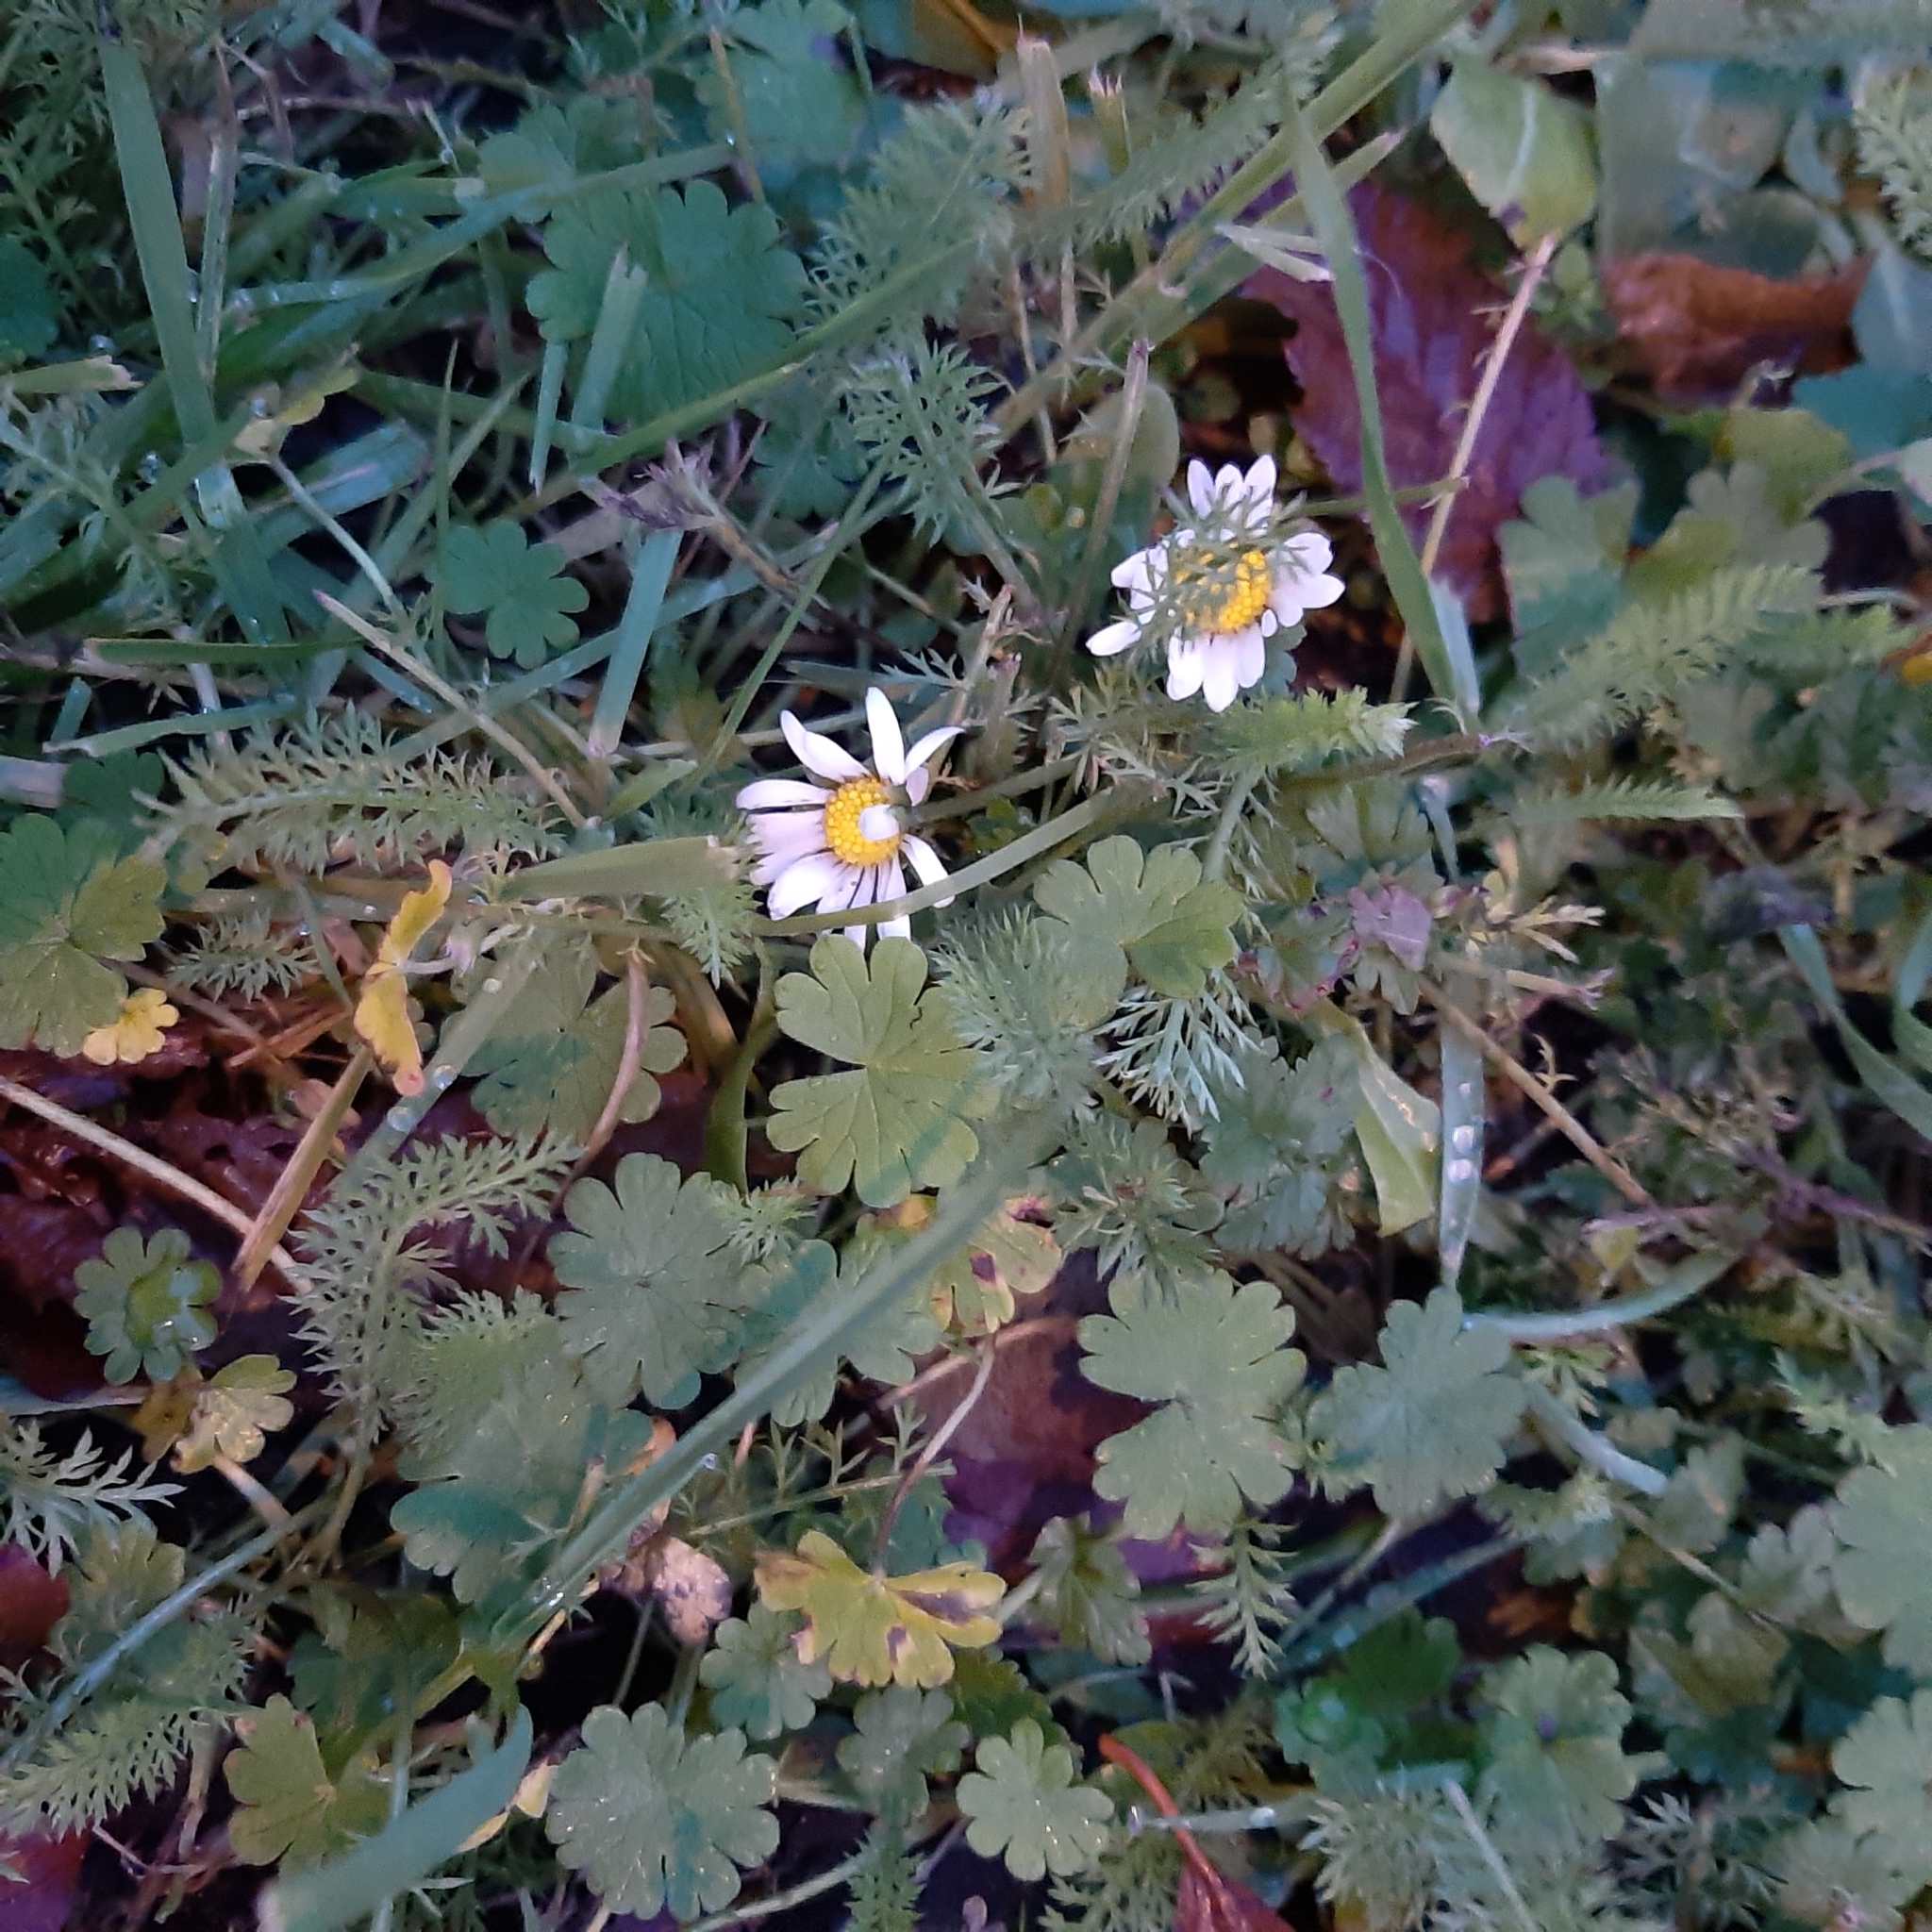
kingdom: Plantae
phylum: Tracheophyta
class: Magnoliopsida
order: Asterales
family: Asteraceae
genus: Bellis
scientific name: Bellis perennis
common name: Lawndaisy
